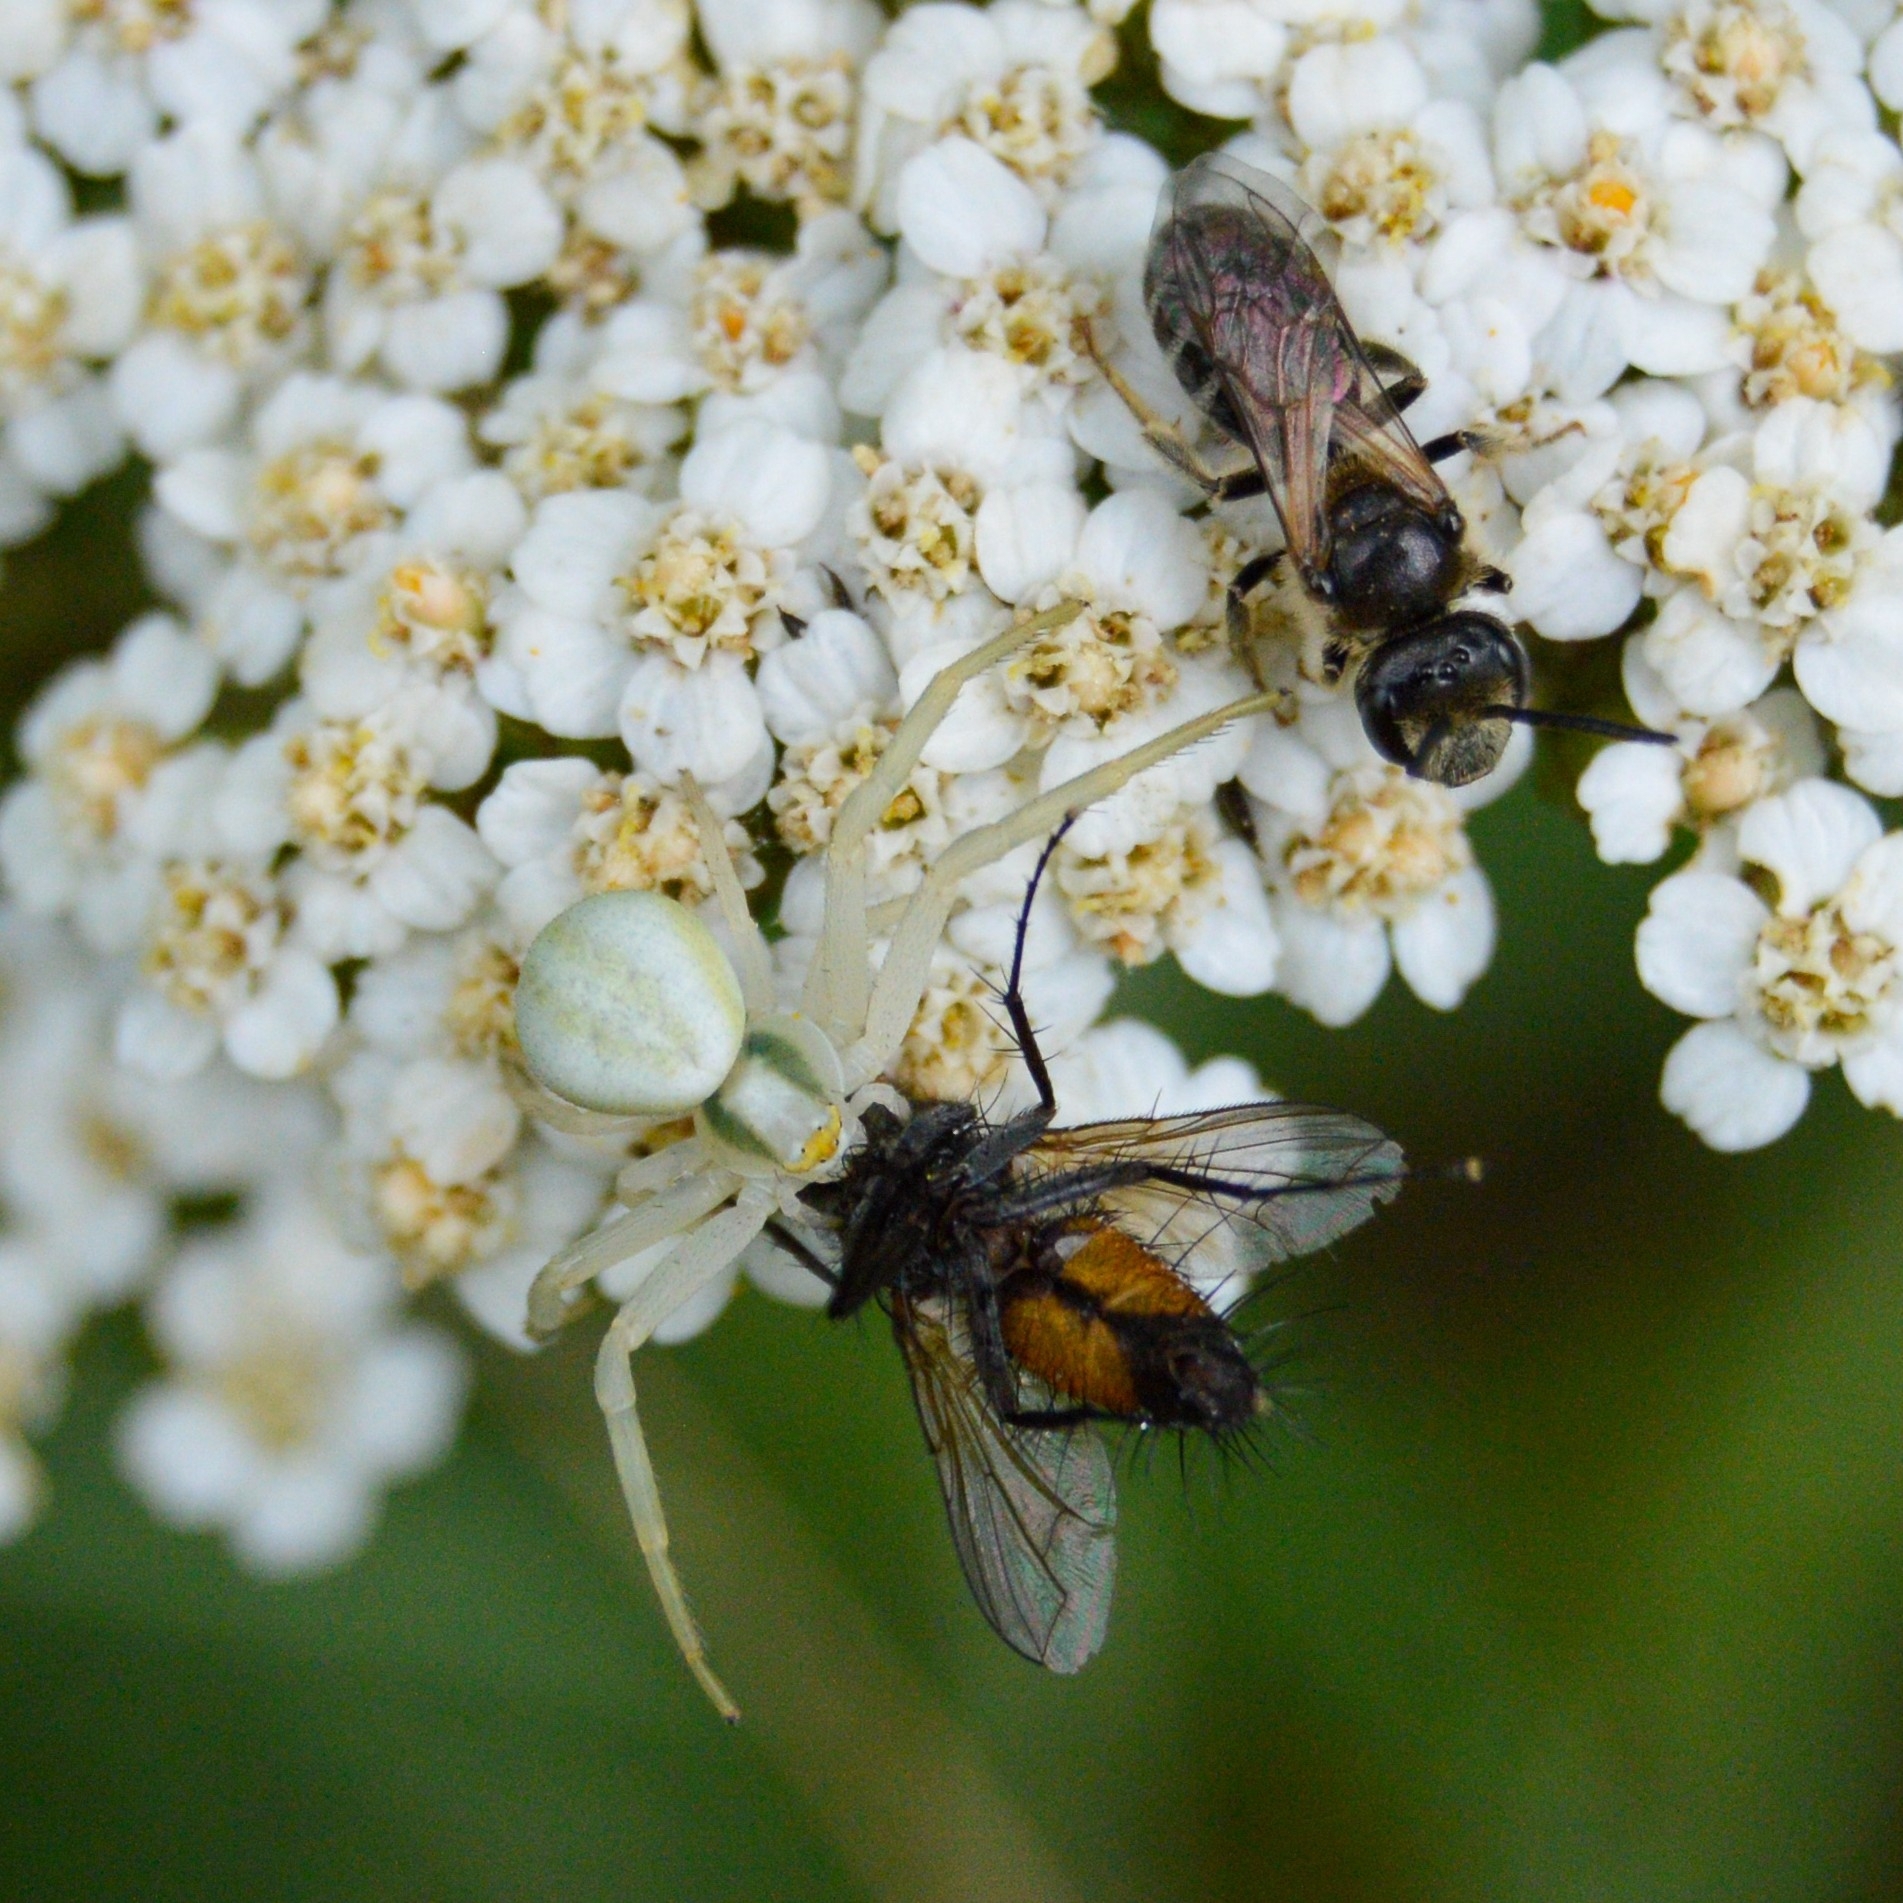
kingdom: Animalia
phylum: Arthropoda
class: Arachnida
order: Araneae
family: Thomisidae
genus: Misumena
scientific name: Misumena vatia
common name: Goldenrod crab spider
